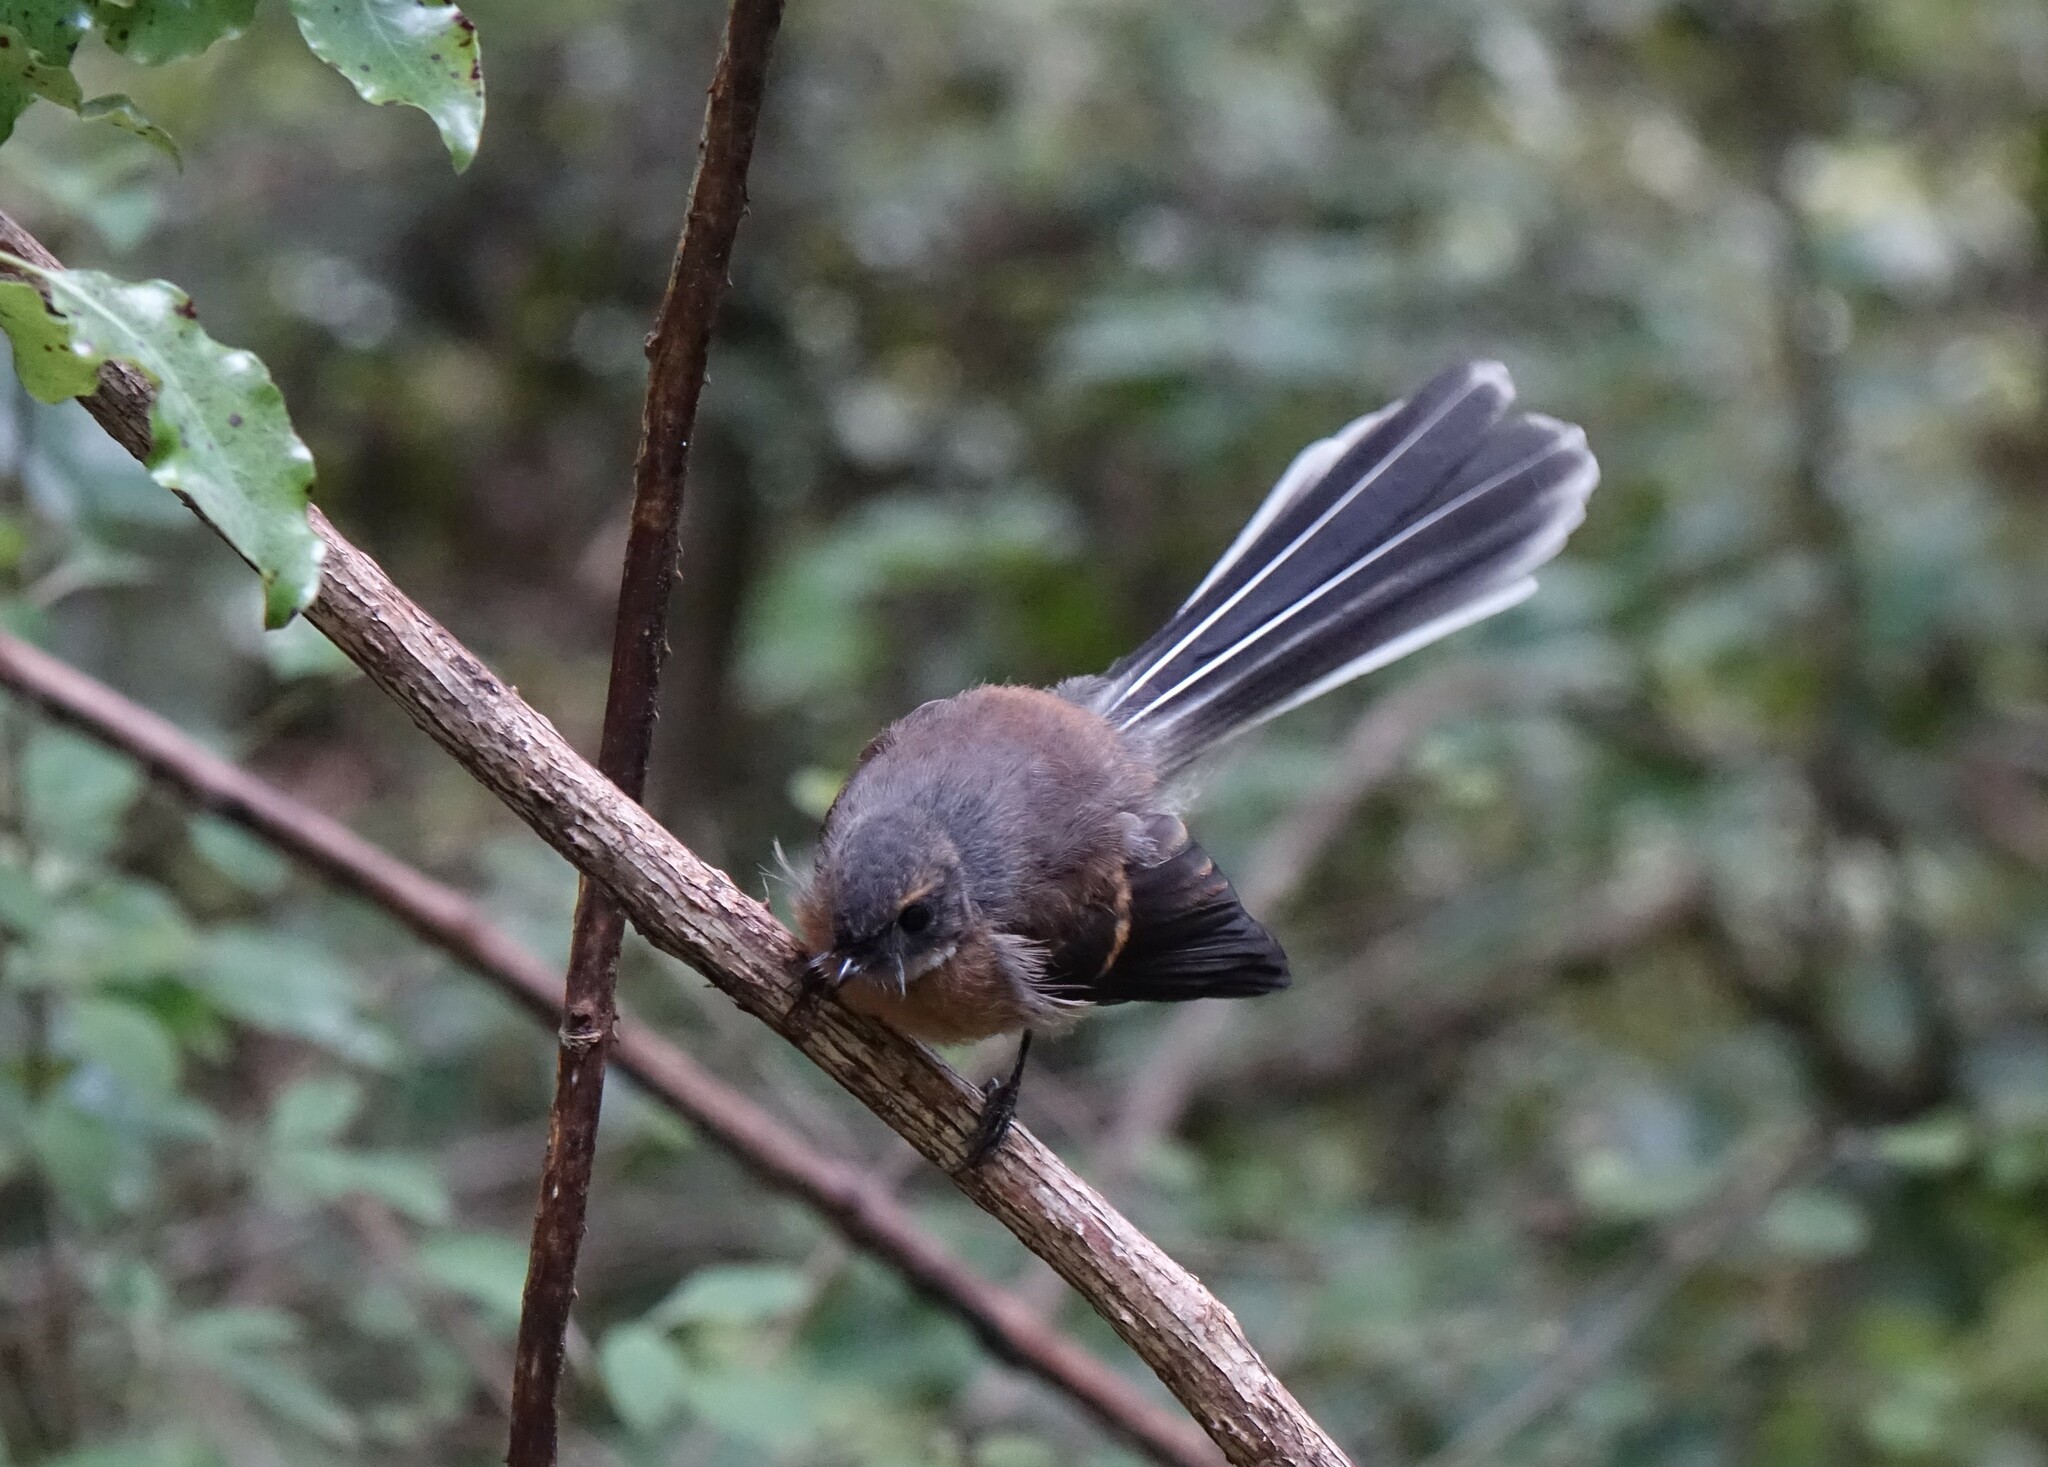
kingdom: Animalia
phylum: Chordata
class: Aves
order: Passeriformes
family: Rhipiduridae
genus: Rhipidura
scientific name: Rhipidura fuliginosa
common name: New zealand fantail
